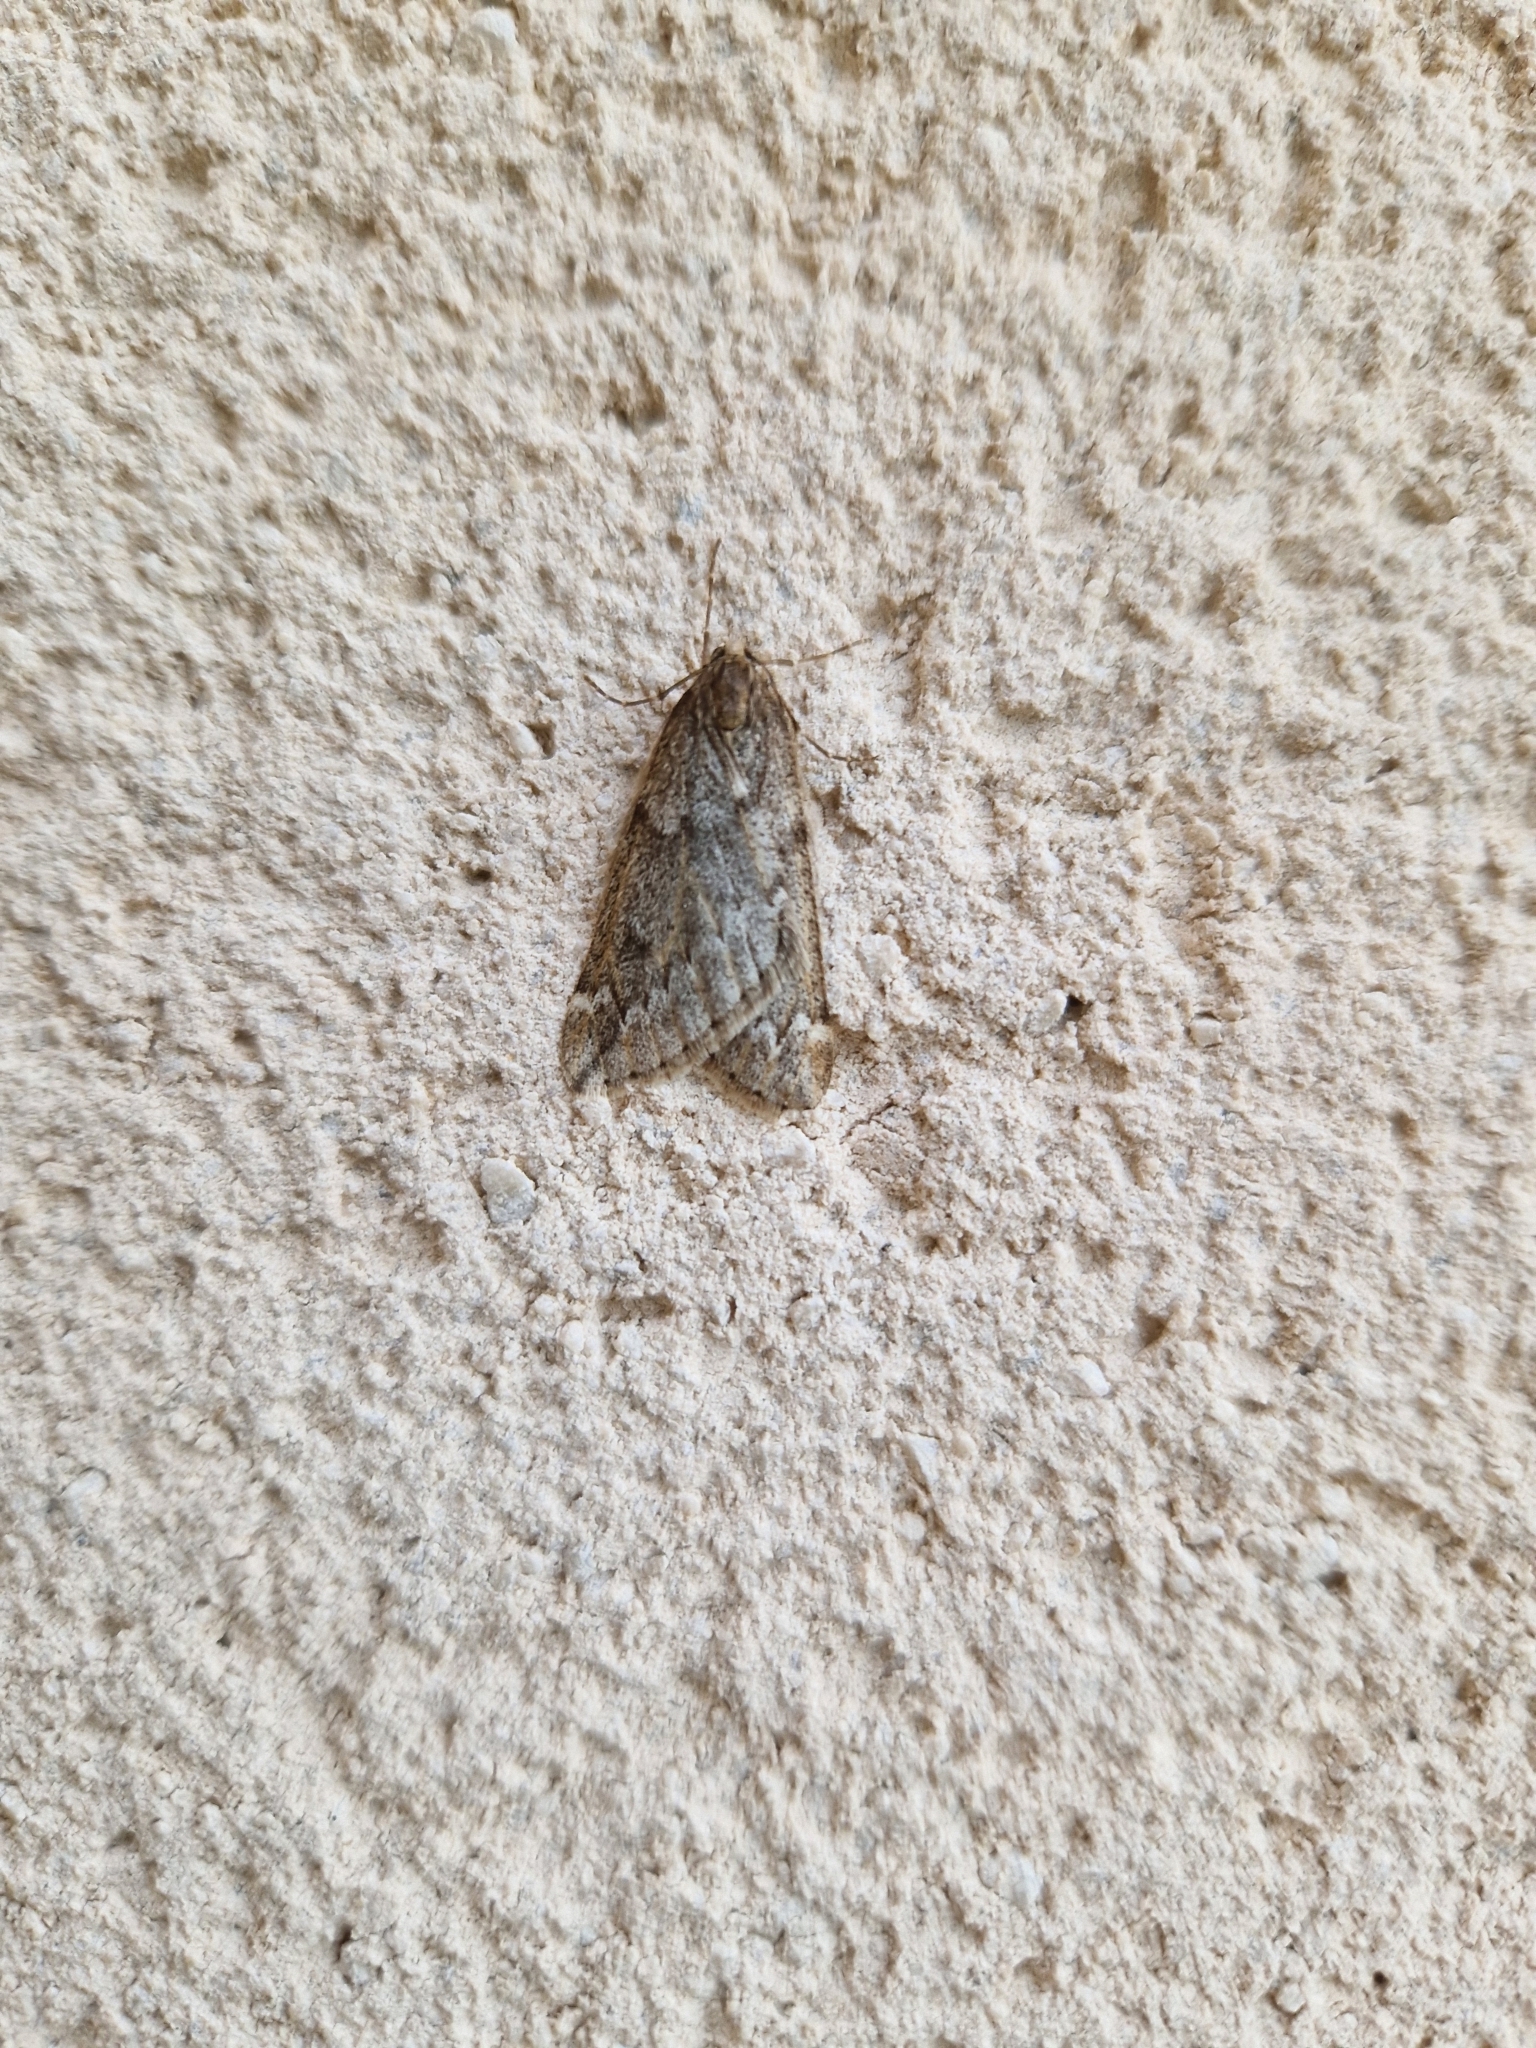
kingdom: Animalia
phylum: Arthropoda
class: Insecta
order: Lepidoptera
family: Geometridae
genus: Alsophila
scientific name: Alsophila aescularia
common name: March moth
